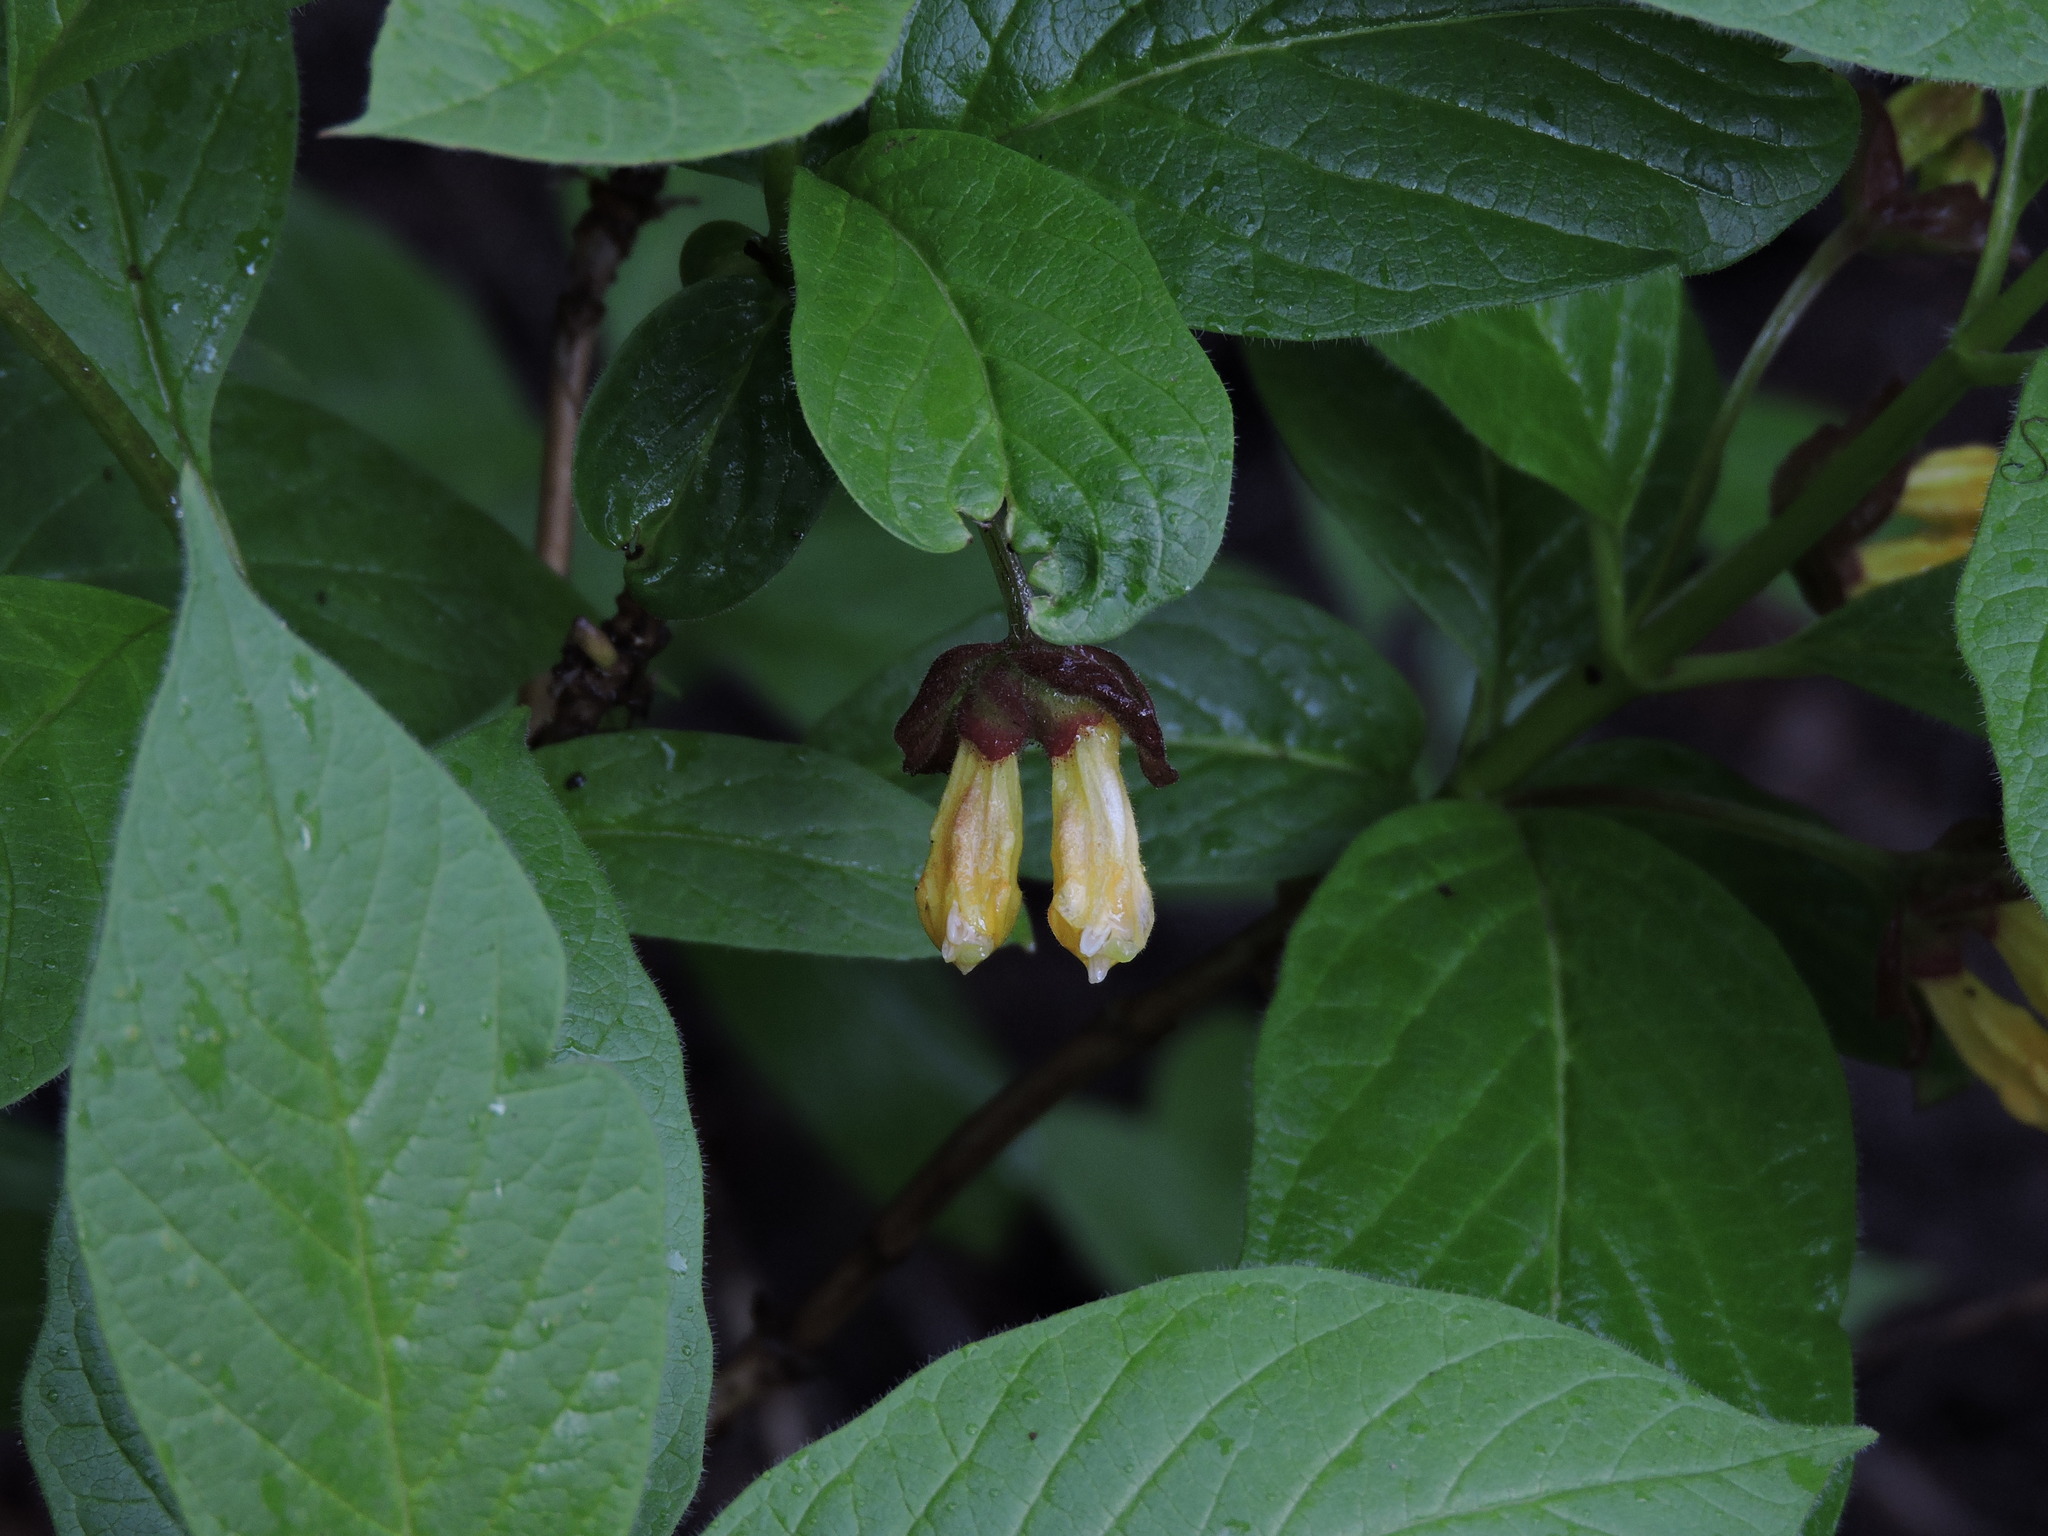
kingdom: Plantae
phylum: Tracheophyta
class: Magnoliopsida
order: Dipsacales
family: Caprifoliaceae
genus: Lonicera
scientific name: Lonicera involucrata
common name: Californian honeysuckle
